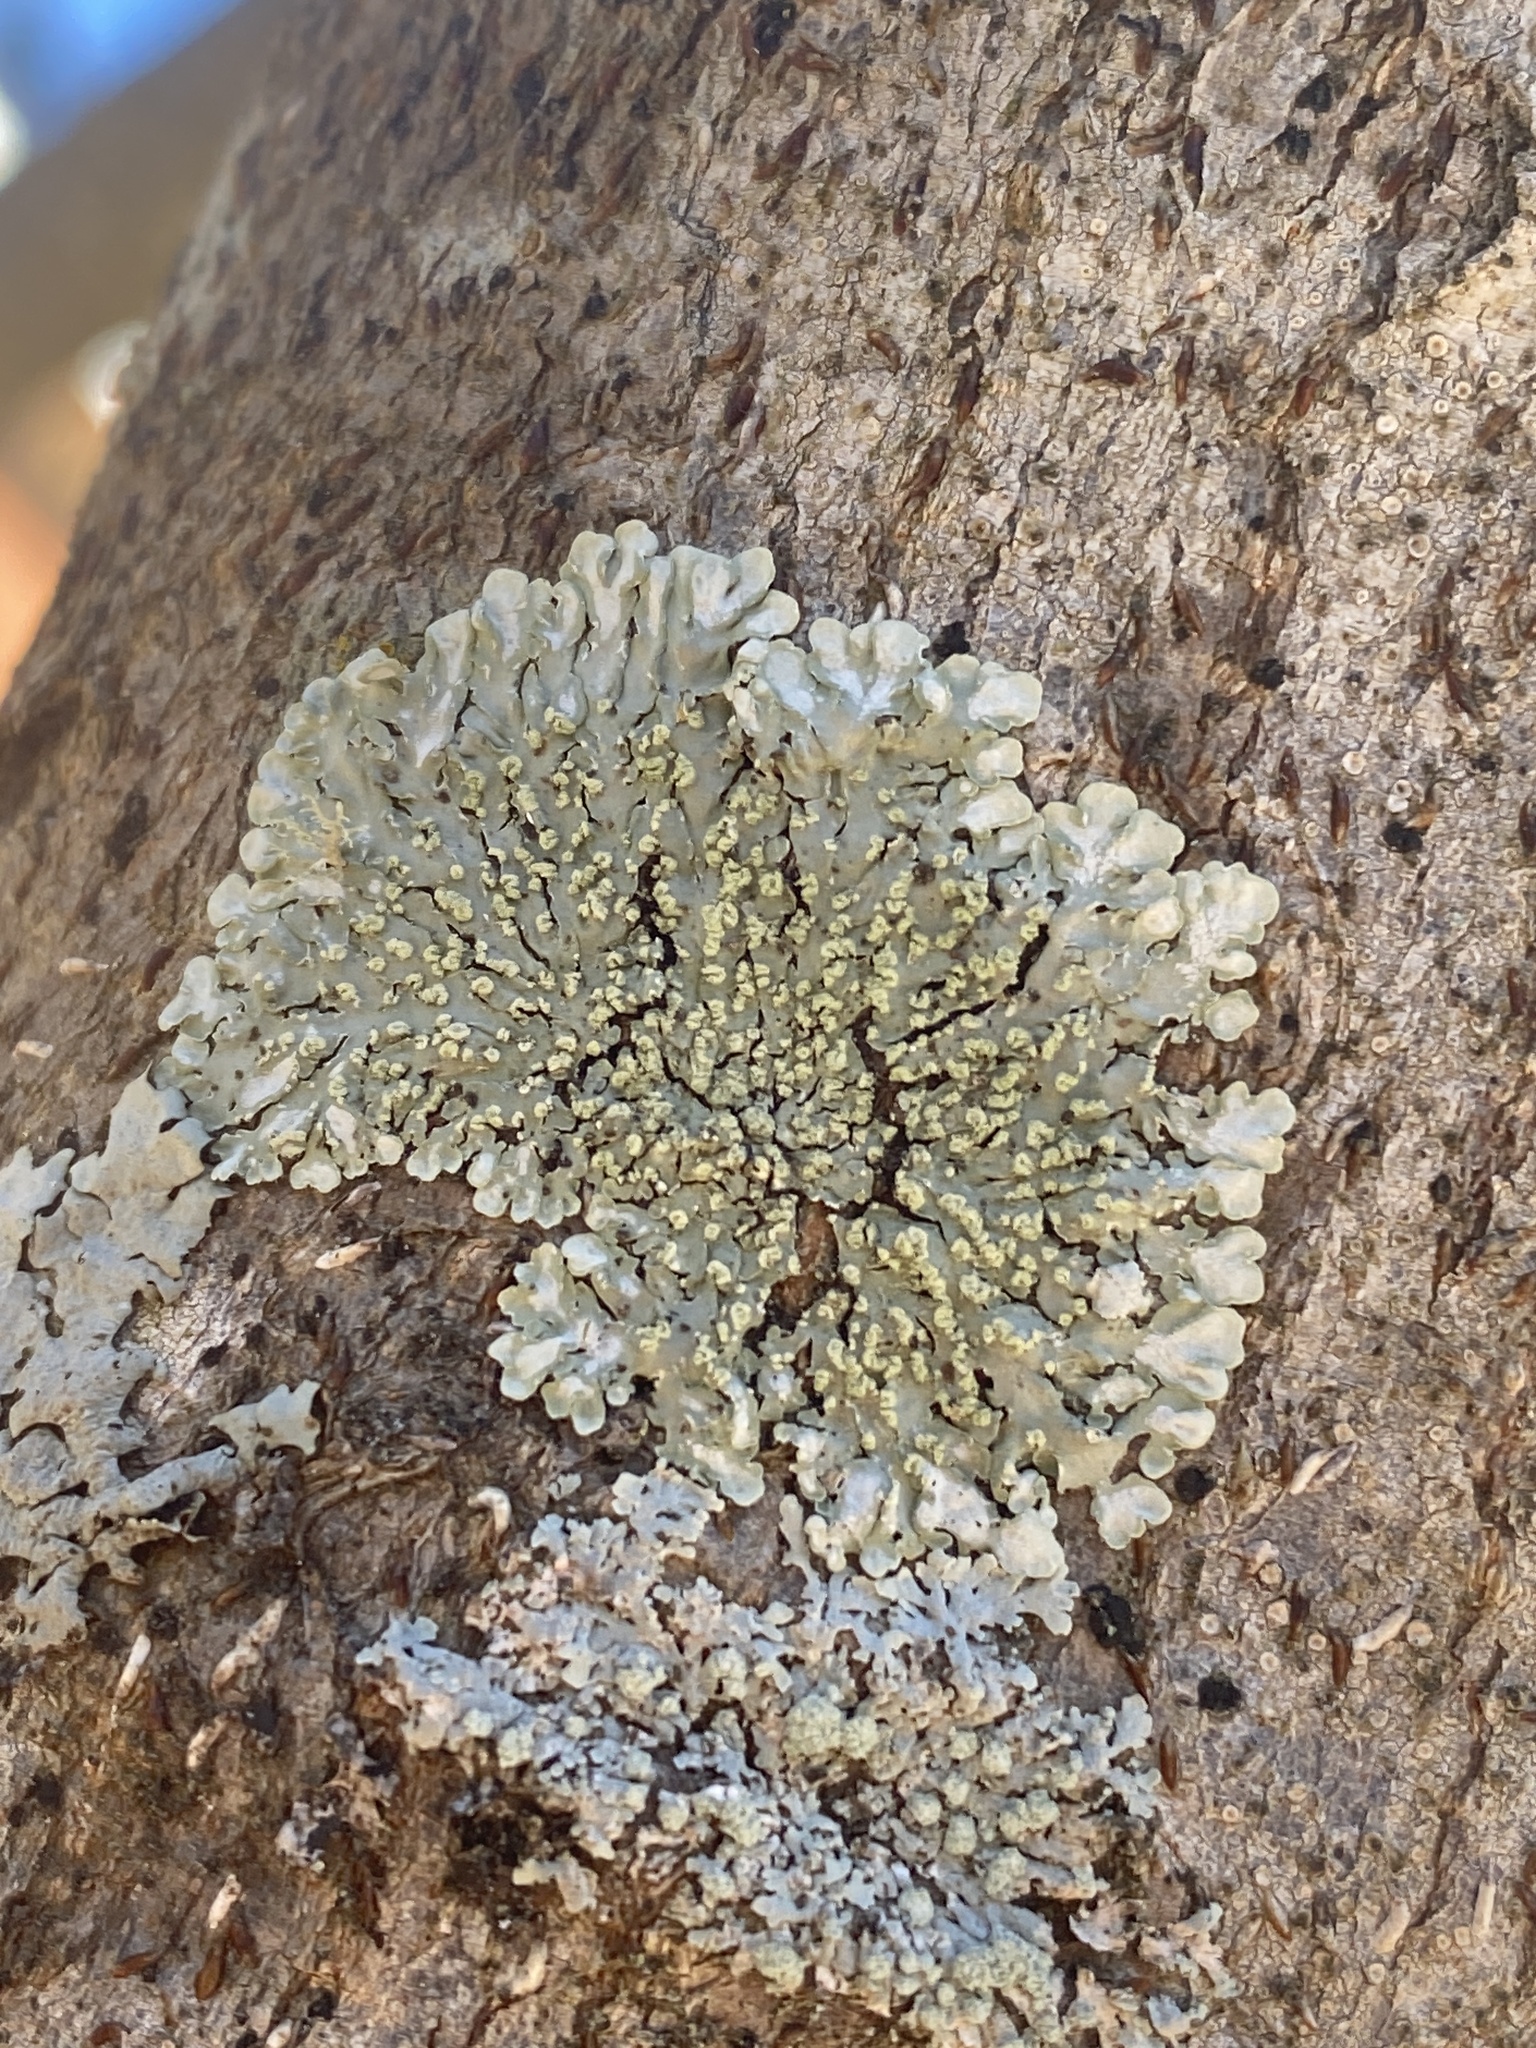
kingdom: Fungi
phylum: Ascomycota
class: Lecanoromycetes
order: Caliciales
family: Caliciaceae
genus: Pyxine
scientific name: Pyxine subcinerea
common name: Mustard lichen
